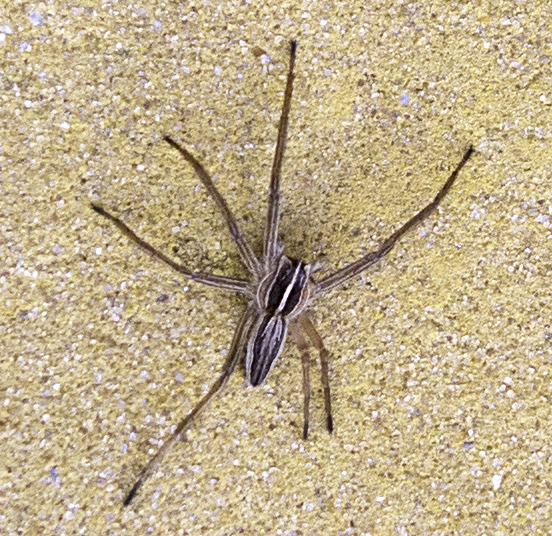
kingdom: Animalia
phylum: Arthropoda
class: Arachnida
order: Araneae
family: Pisauridae
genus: Pisaura
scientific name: Pisaura mirabilis
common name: Tent spider
